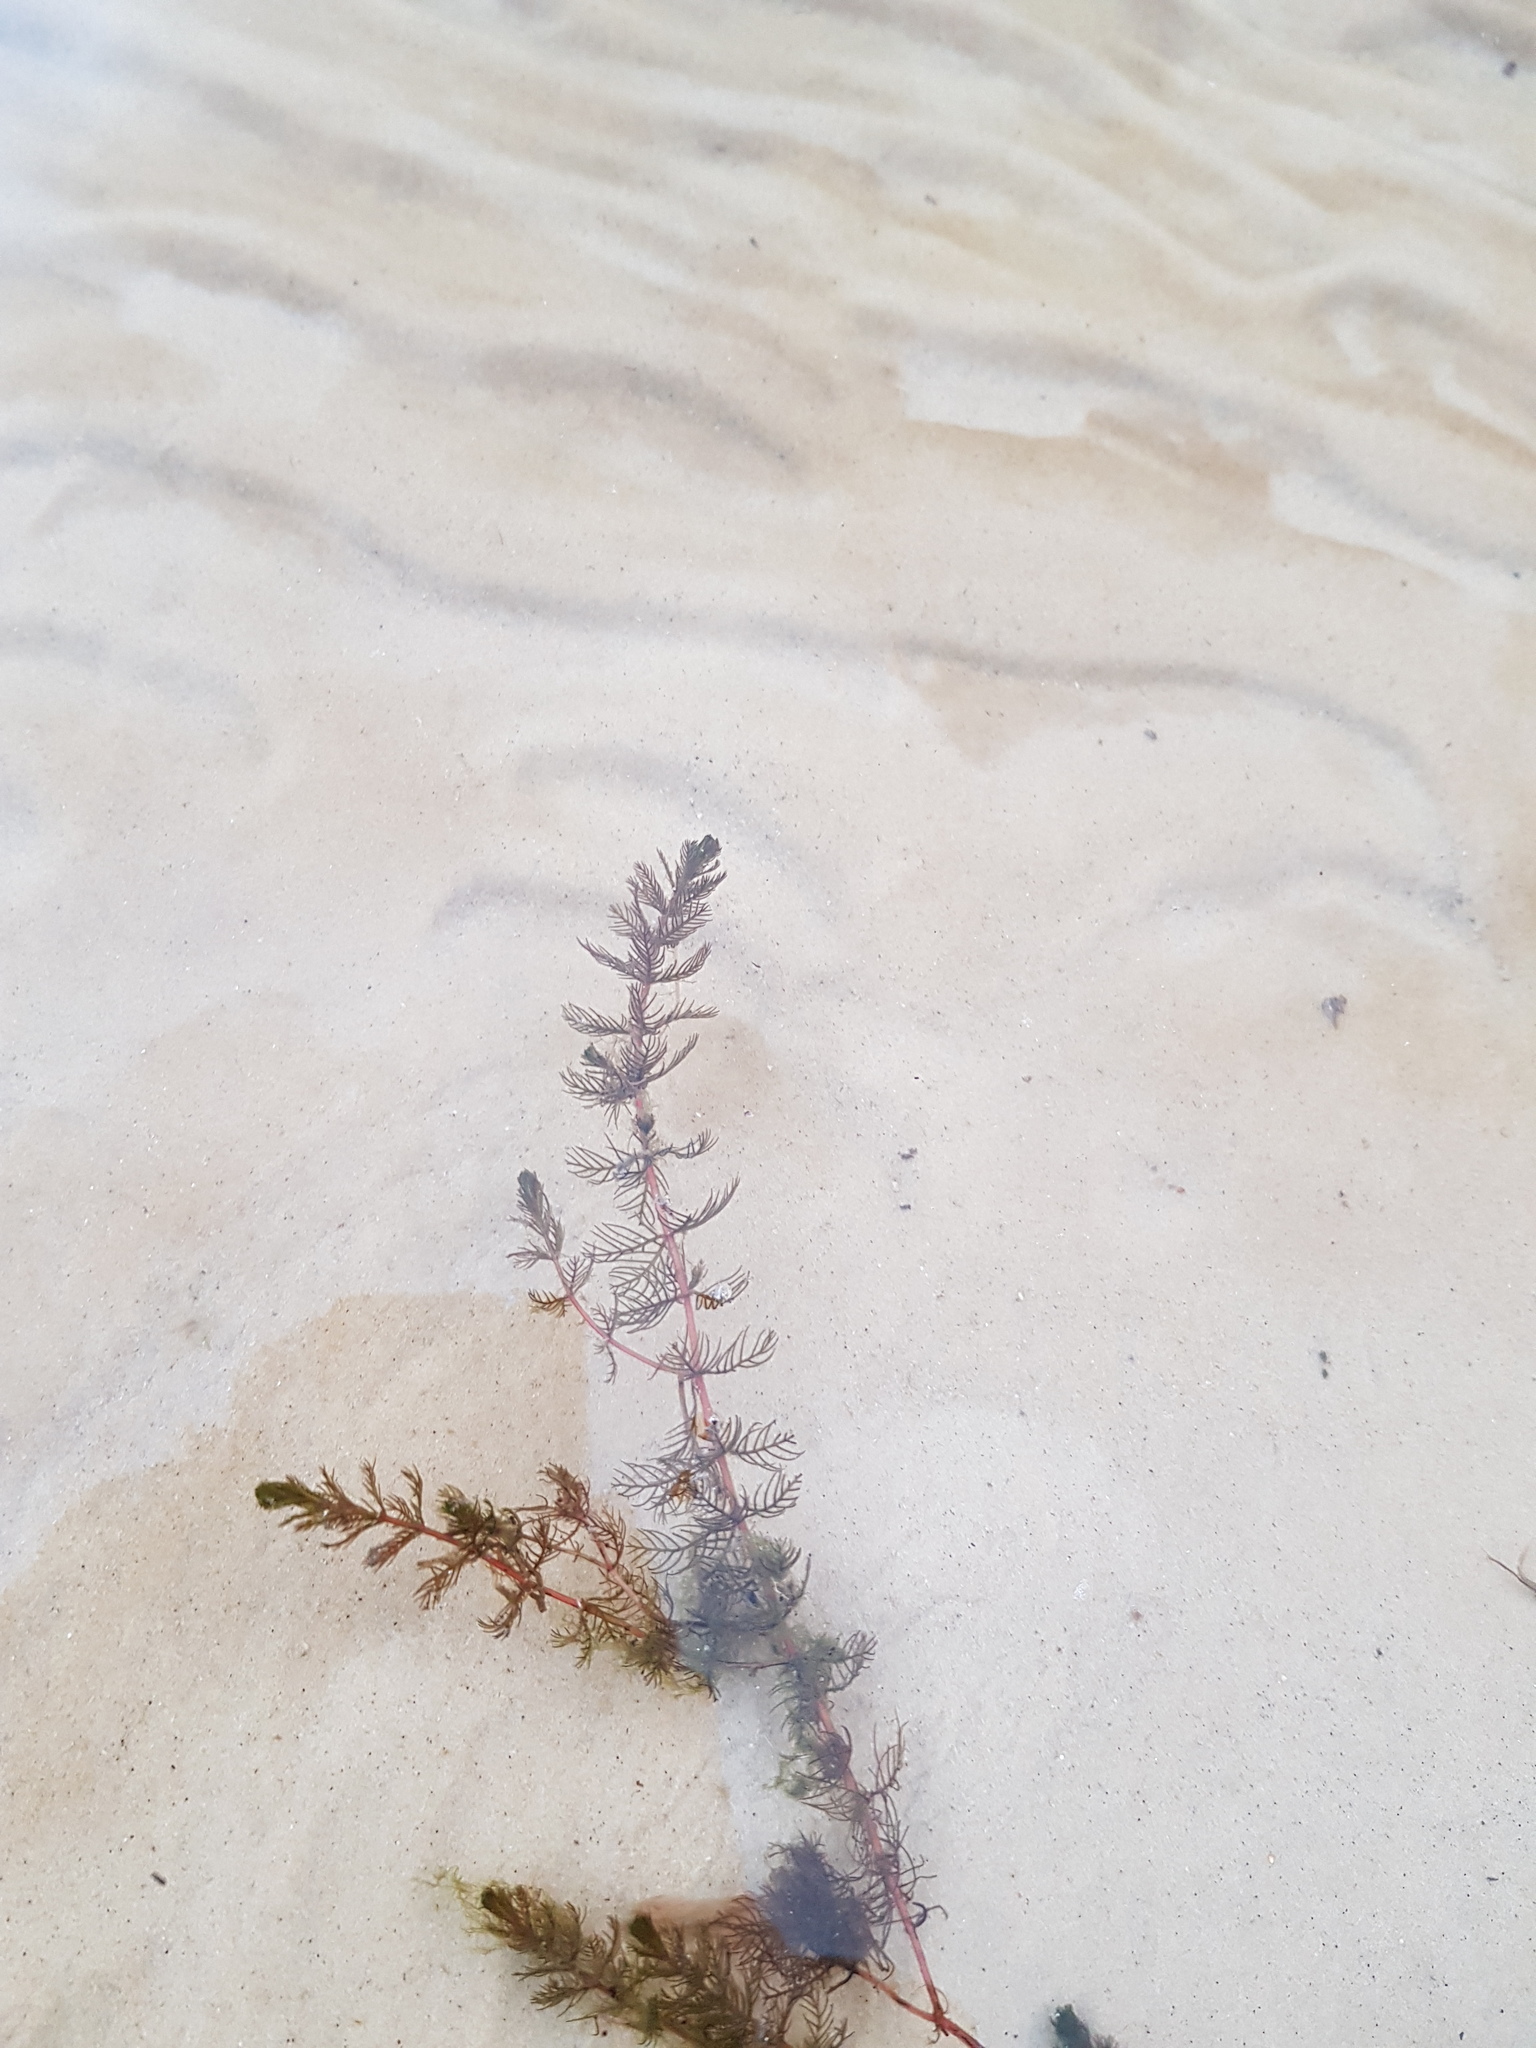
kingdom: Plantae
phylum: Tracheophyta
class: Magnoliopsida
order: Saxifragales
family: Haloragaceae
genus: Myriophyllum
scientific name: Myriophyllum sibiricum
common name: Siberian water-milfoil
